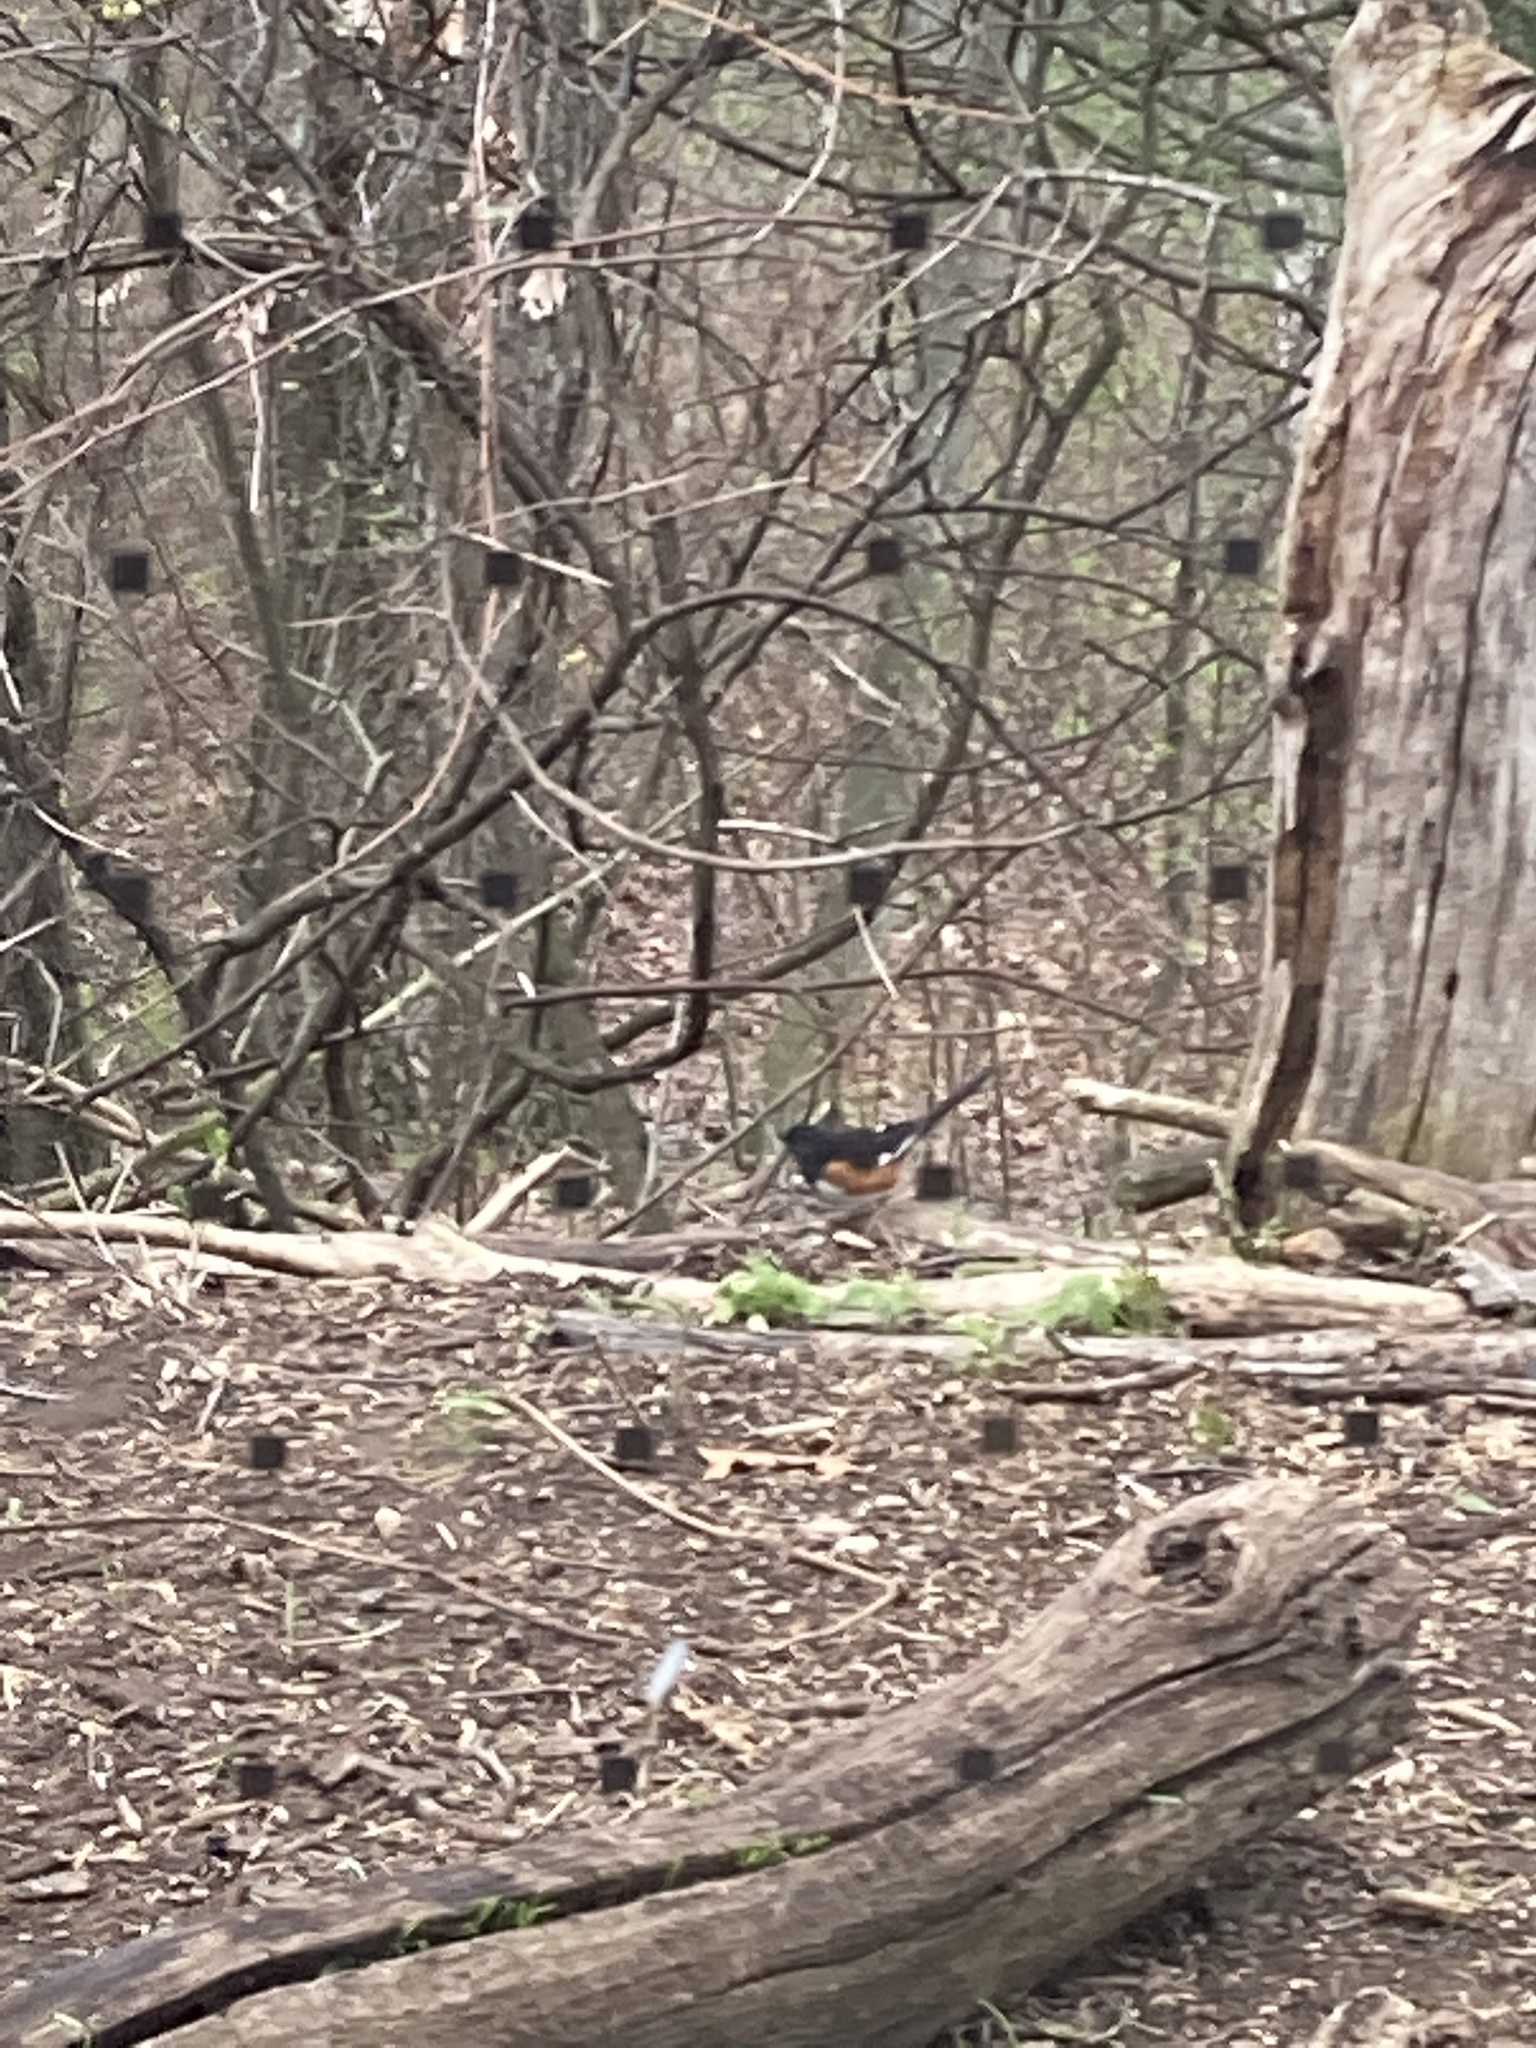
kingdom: Animalia
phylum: Chordata
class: Aves
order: Passeriformes
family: Passerellidae
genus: Pipilo
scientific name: Pipilo erythrophthalmus
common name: Eastern towhee
